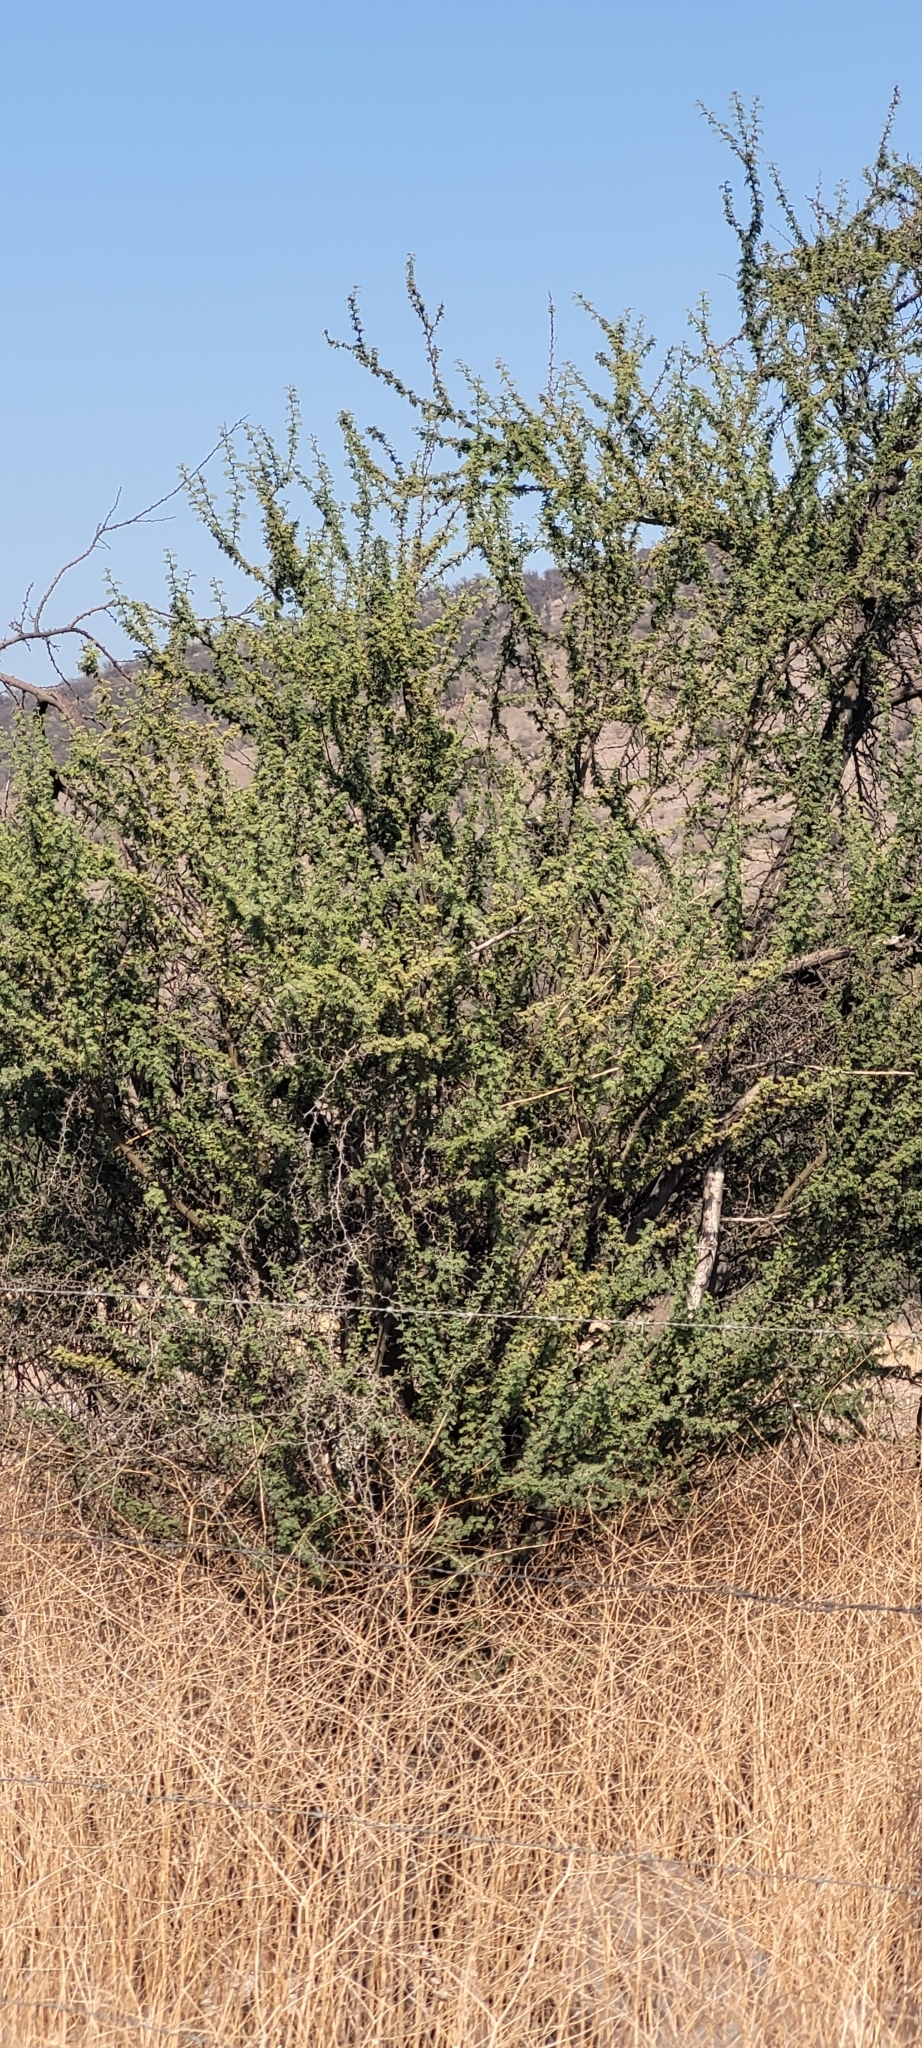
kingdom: Plantae
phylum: Tracheophyta
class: Magnoliopsida
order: Fabales
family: Fabaceae
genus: Vachellia
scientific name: Vachellia caven
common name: Roman cassie
